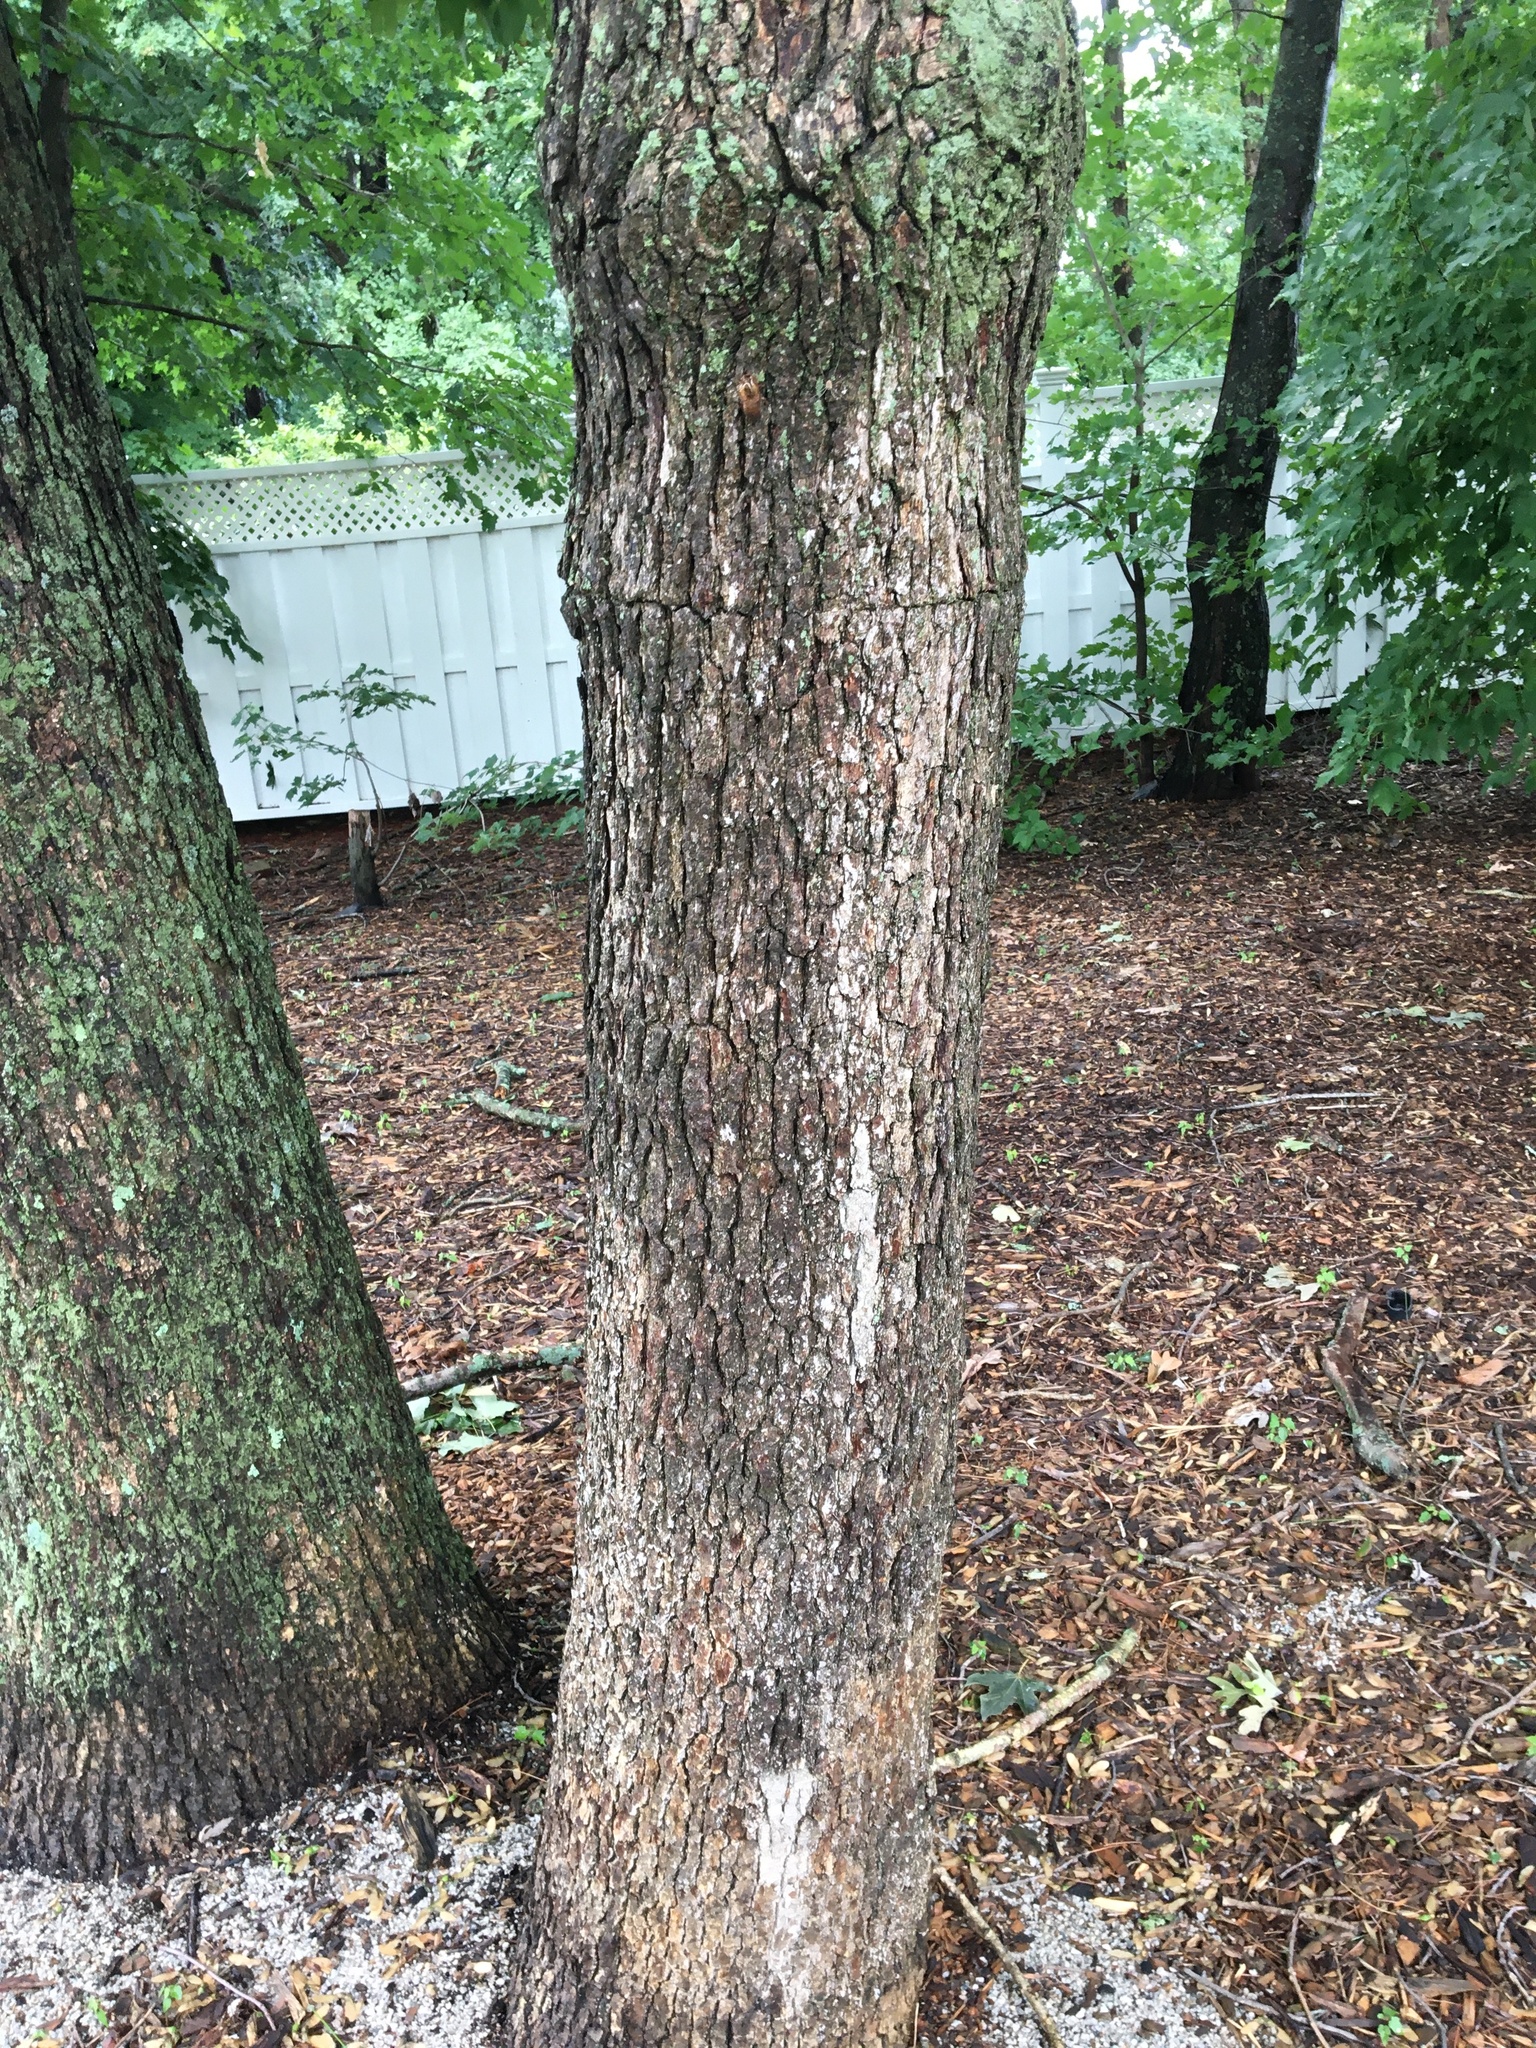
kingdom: Plantae
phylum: Tracheophyta
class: Magnoliopsida
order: Fagales
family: Fagaceae
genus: Quercus
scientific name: Quercus alba
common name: White oak
